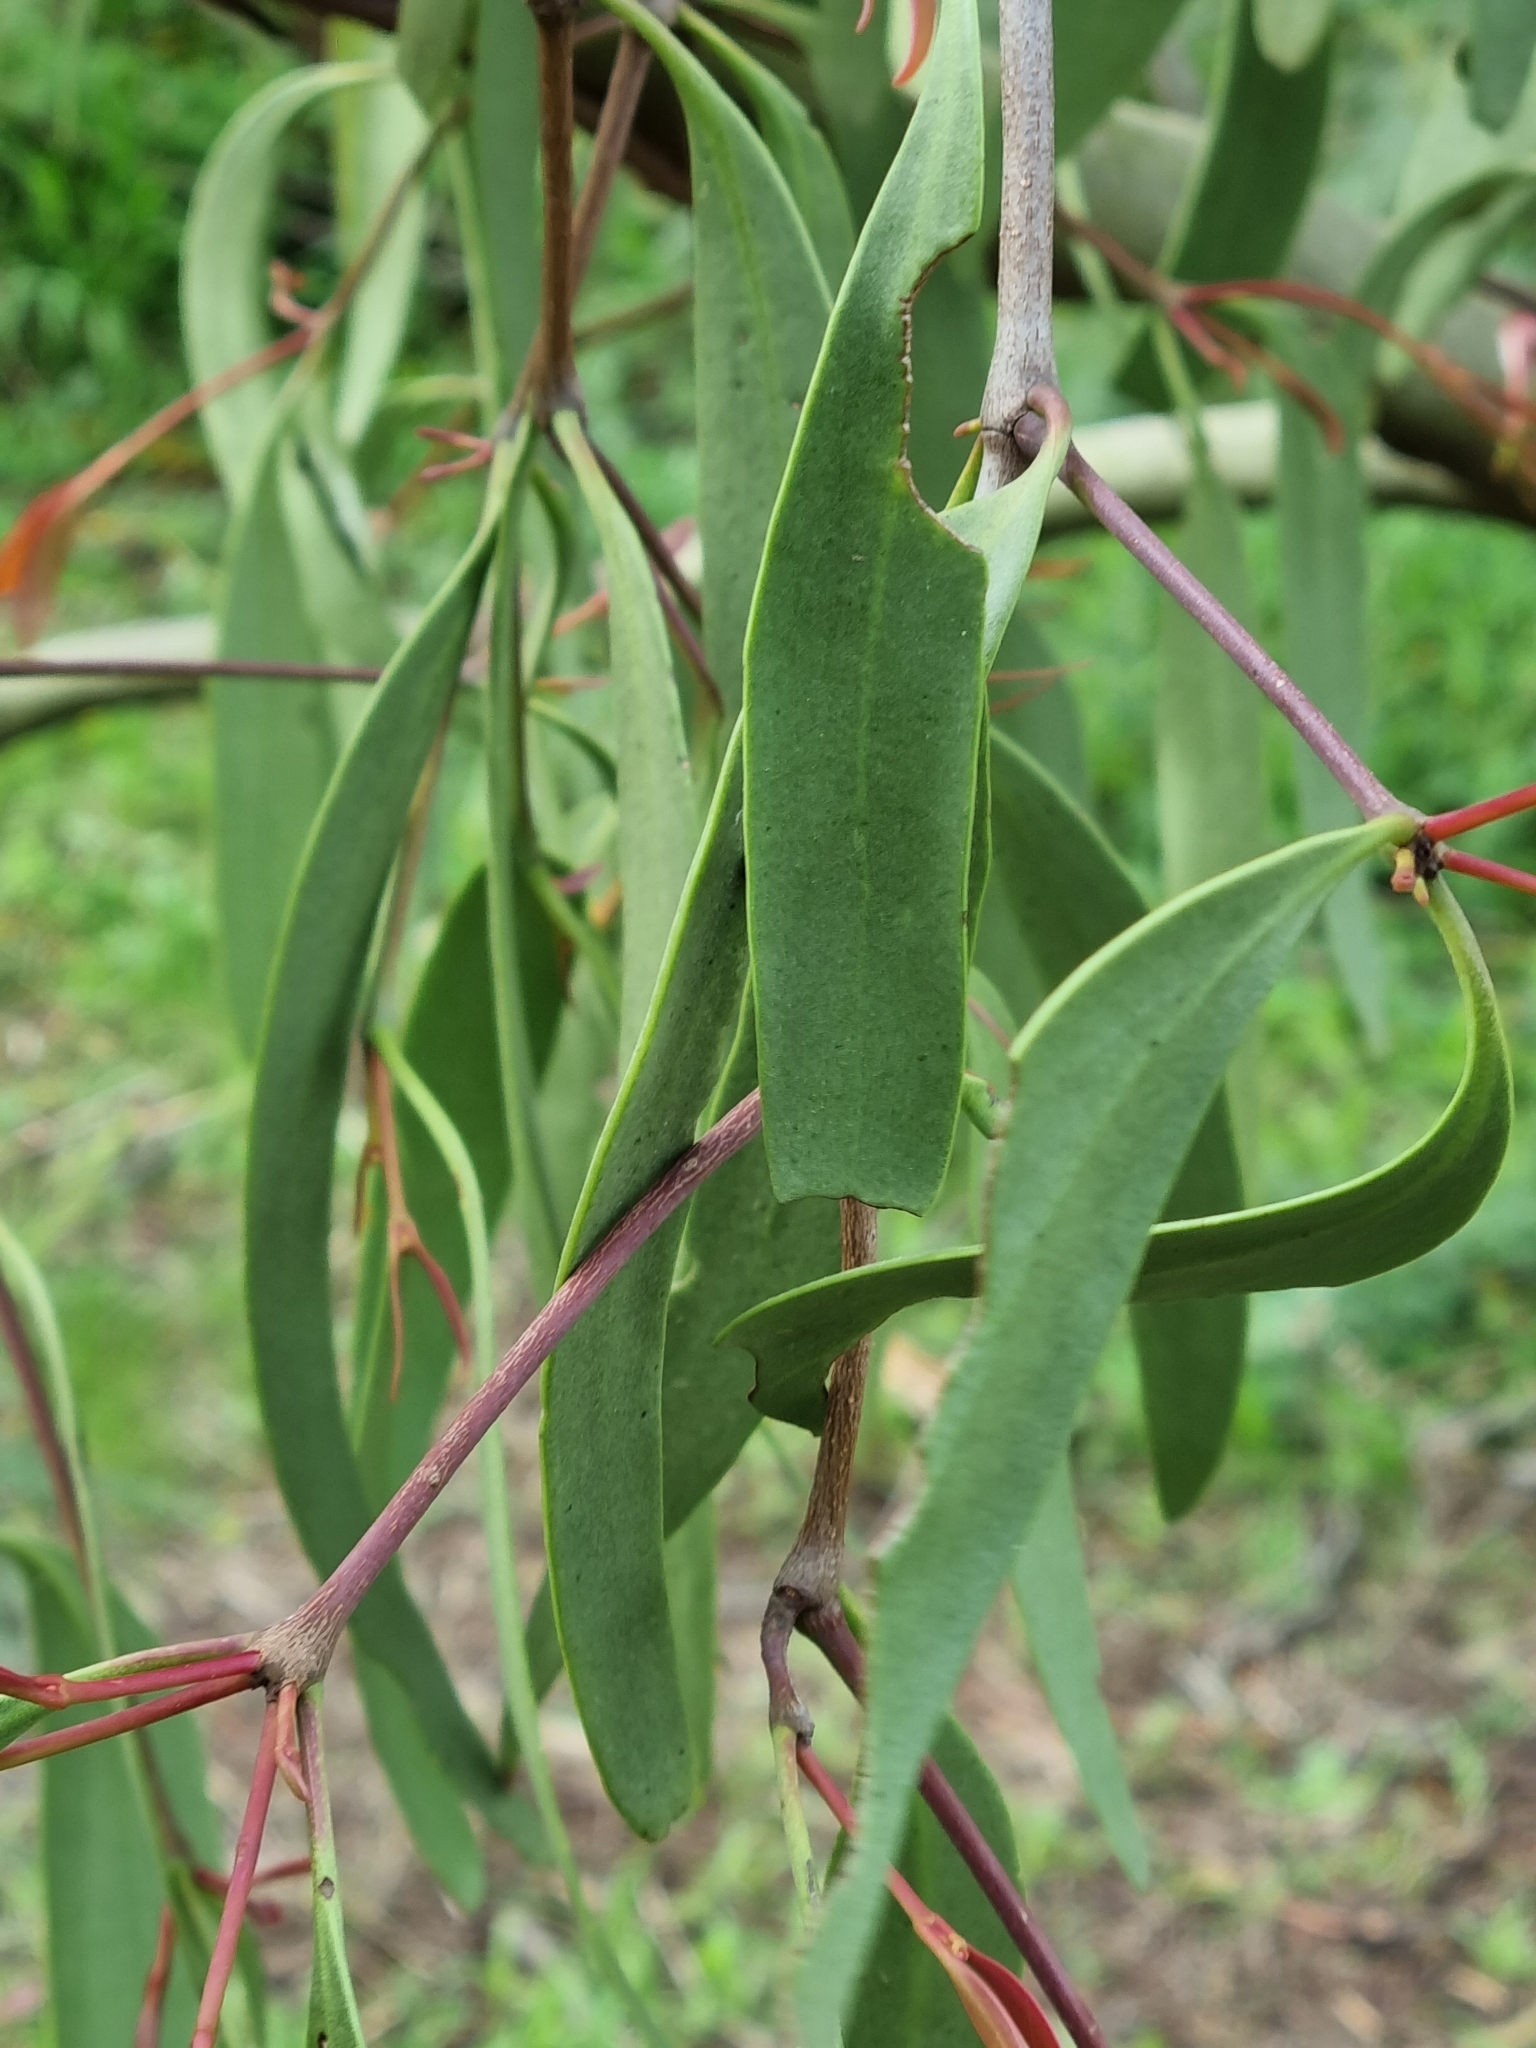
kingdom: Plantae
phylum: Tracheophyta
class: Magnoliopsida
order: Santalales
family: Loranthaceae
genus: Muellerina
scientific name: Muellerina eucalyptoides
